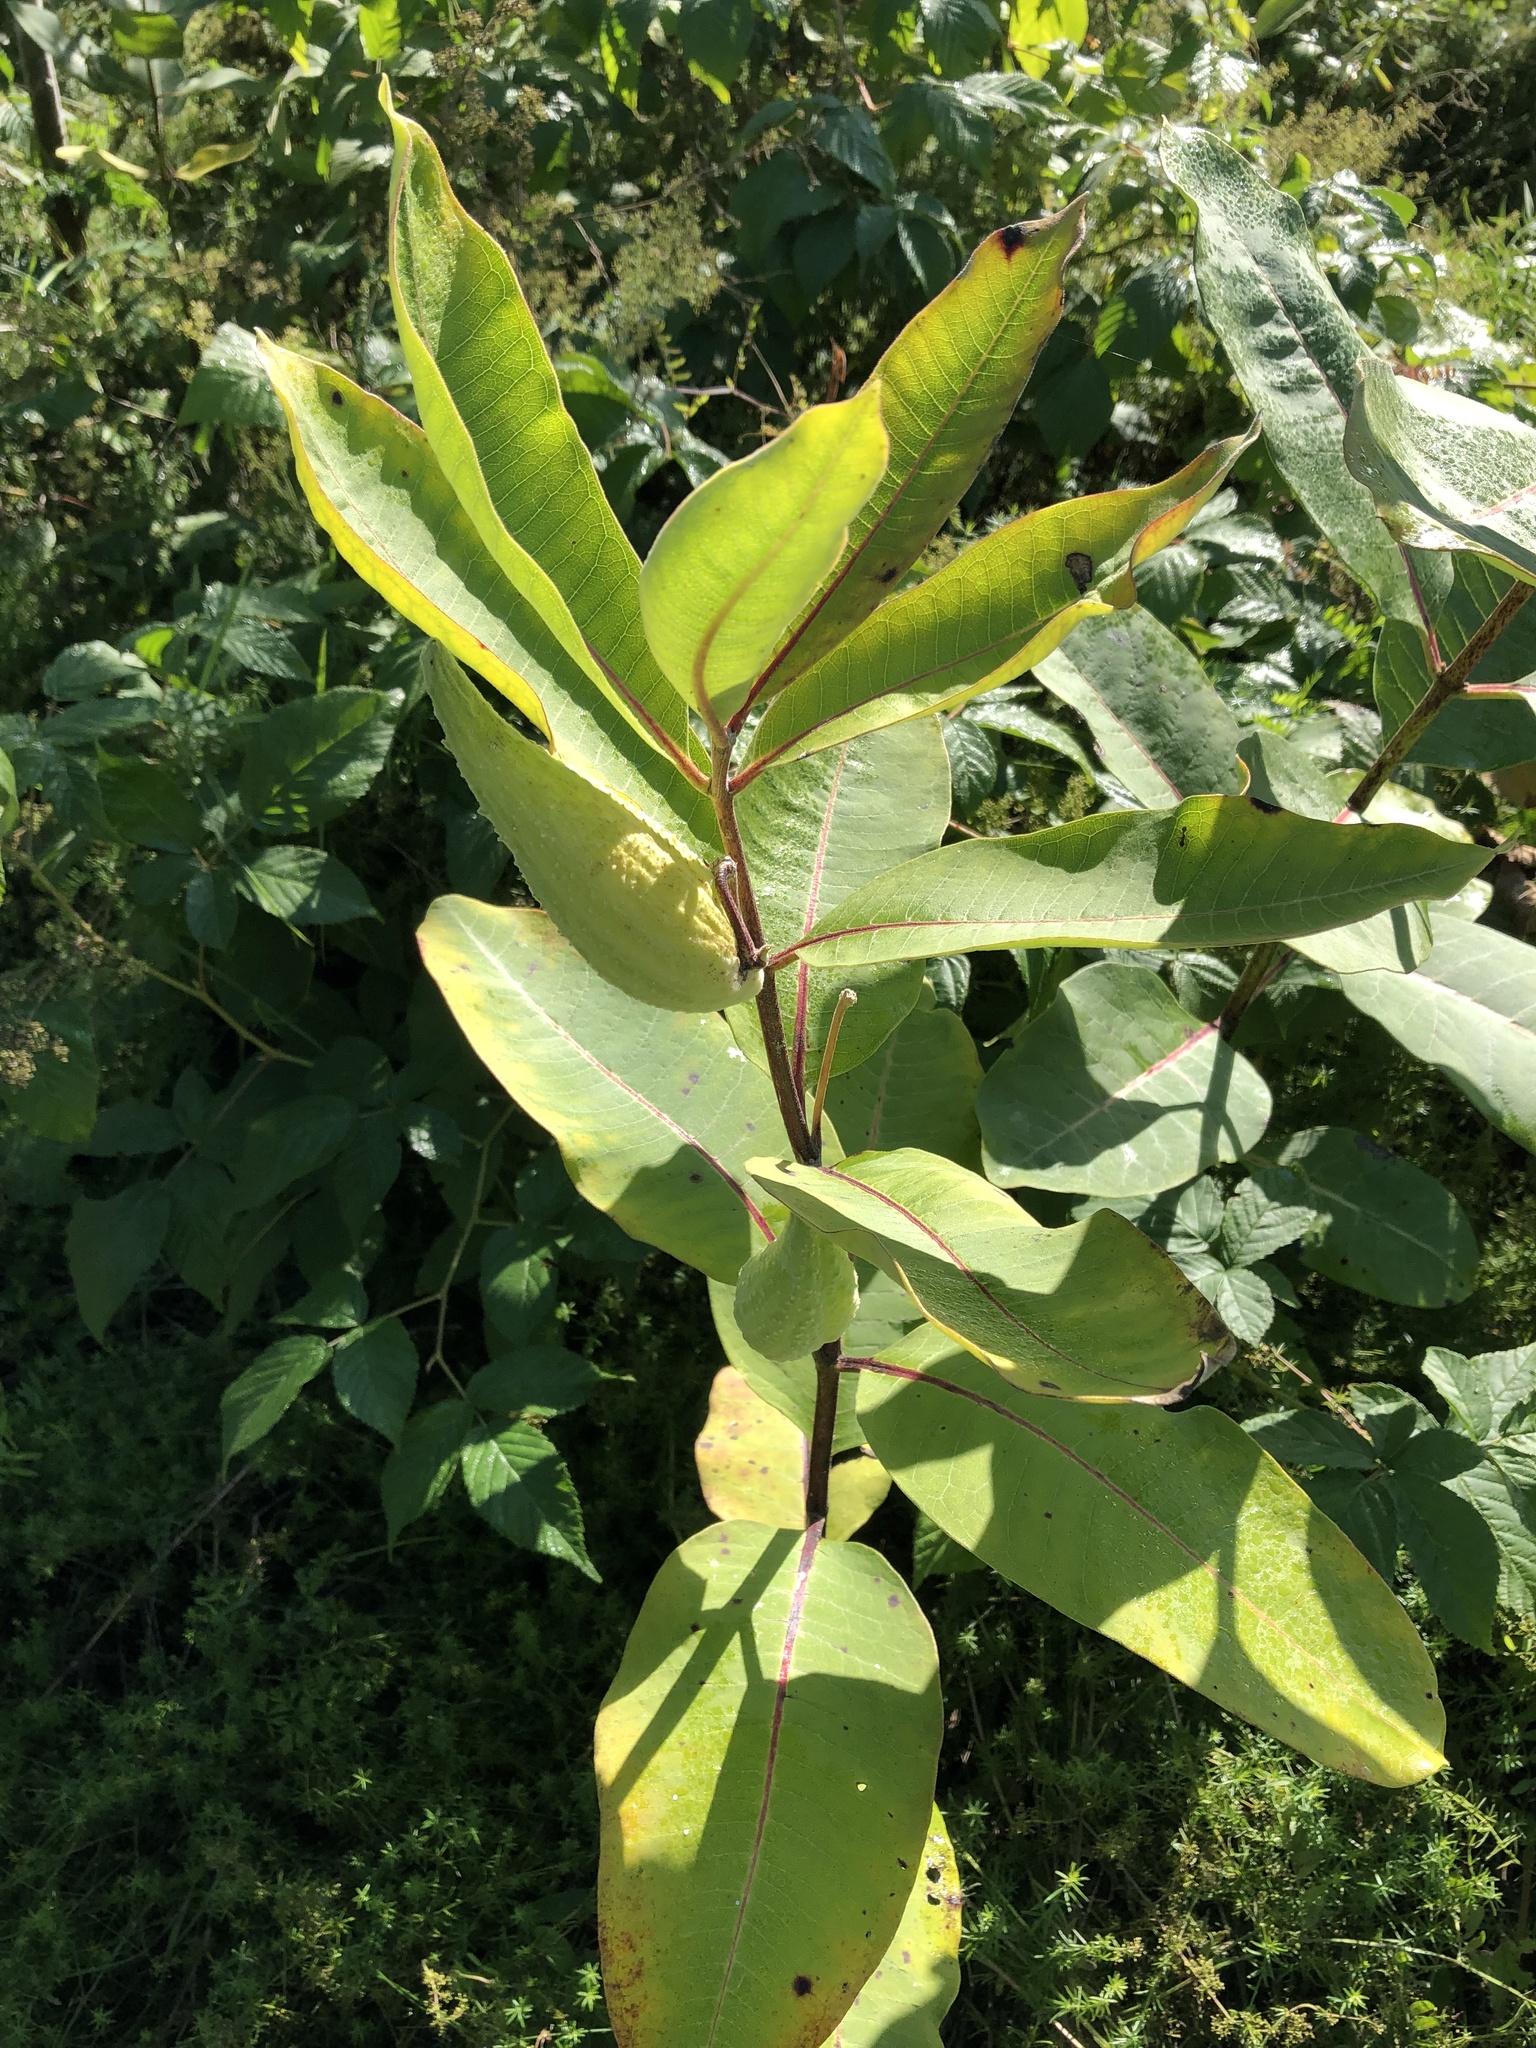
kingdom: Plantae
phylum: Tracheophyta
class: Magnoliopsida
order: Gentianales
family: Apocynaceae
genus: Asclepias
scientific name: Asclepias syriaca
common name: Common milkweed
